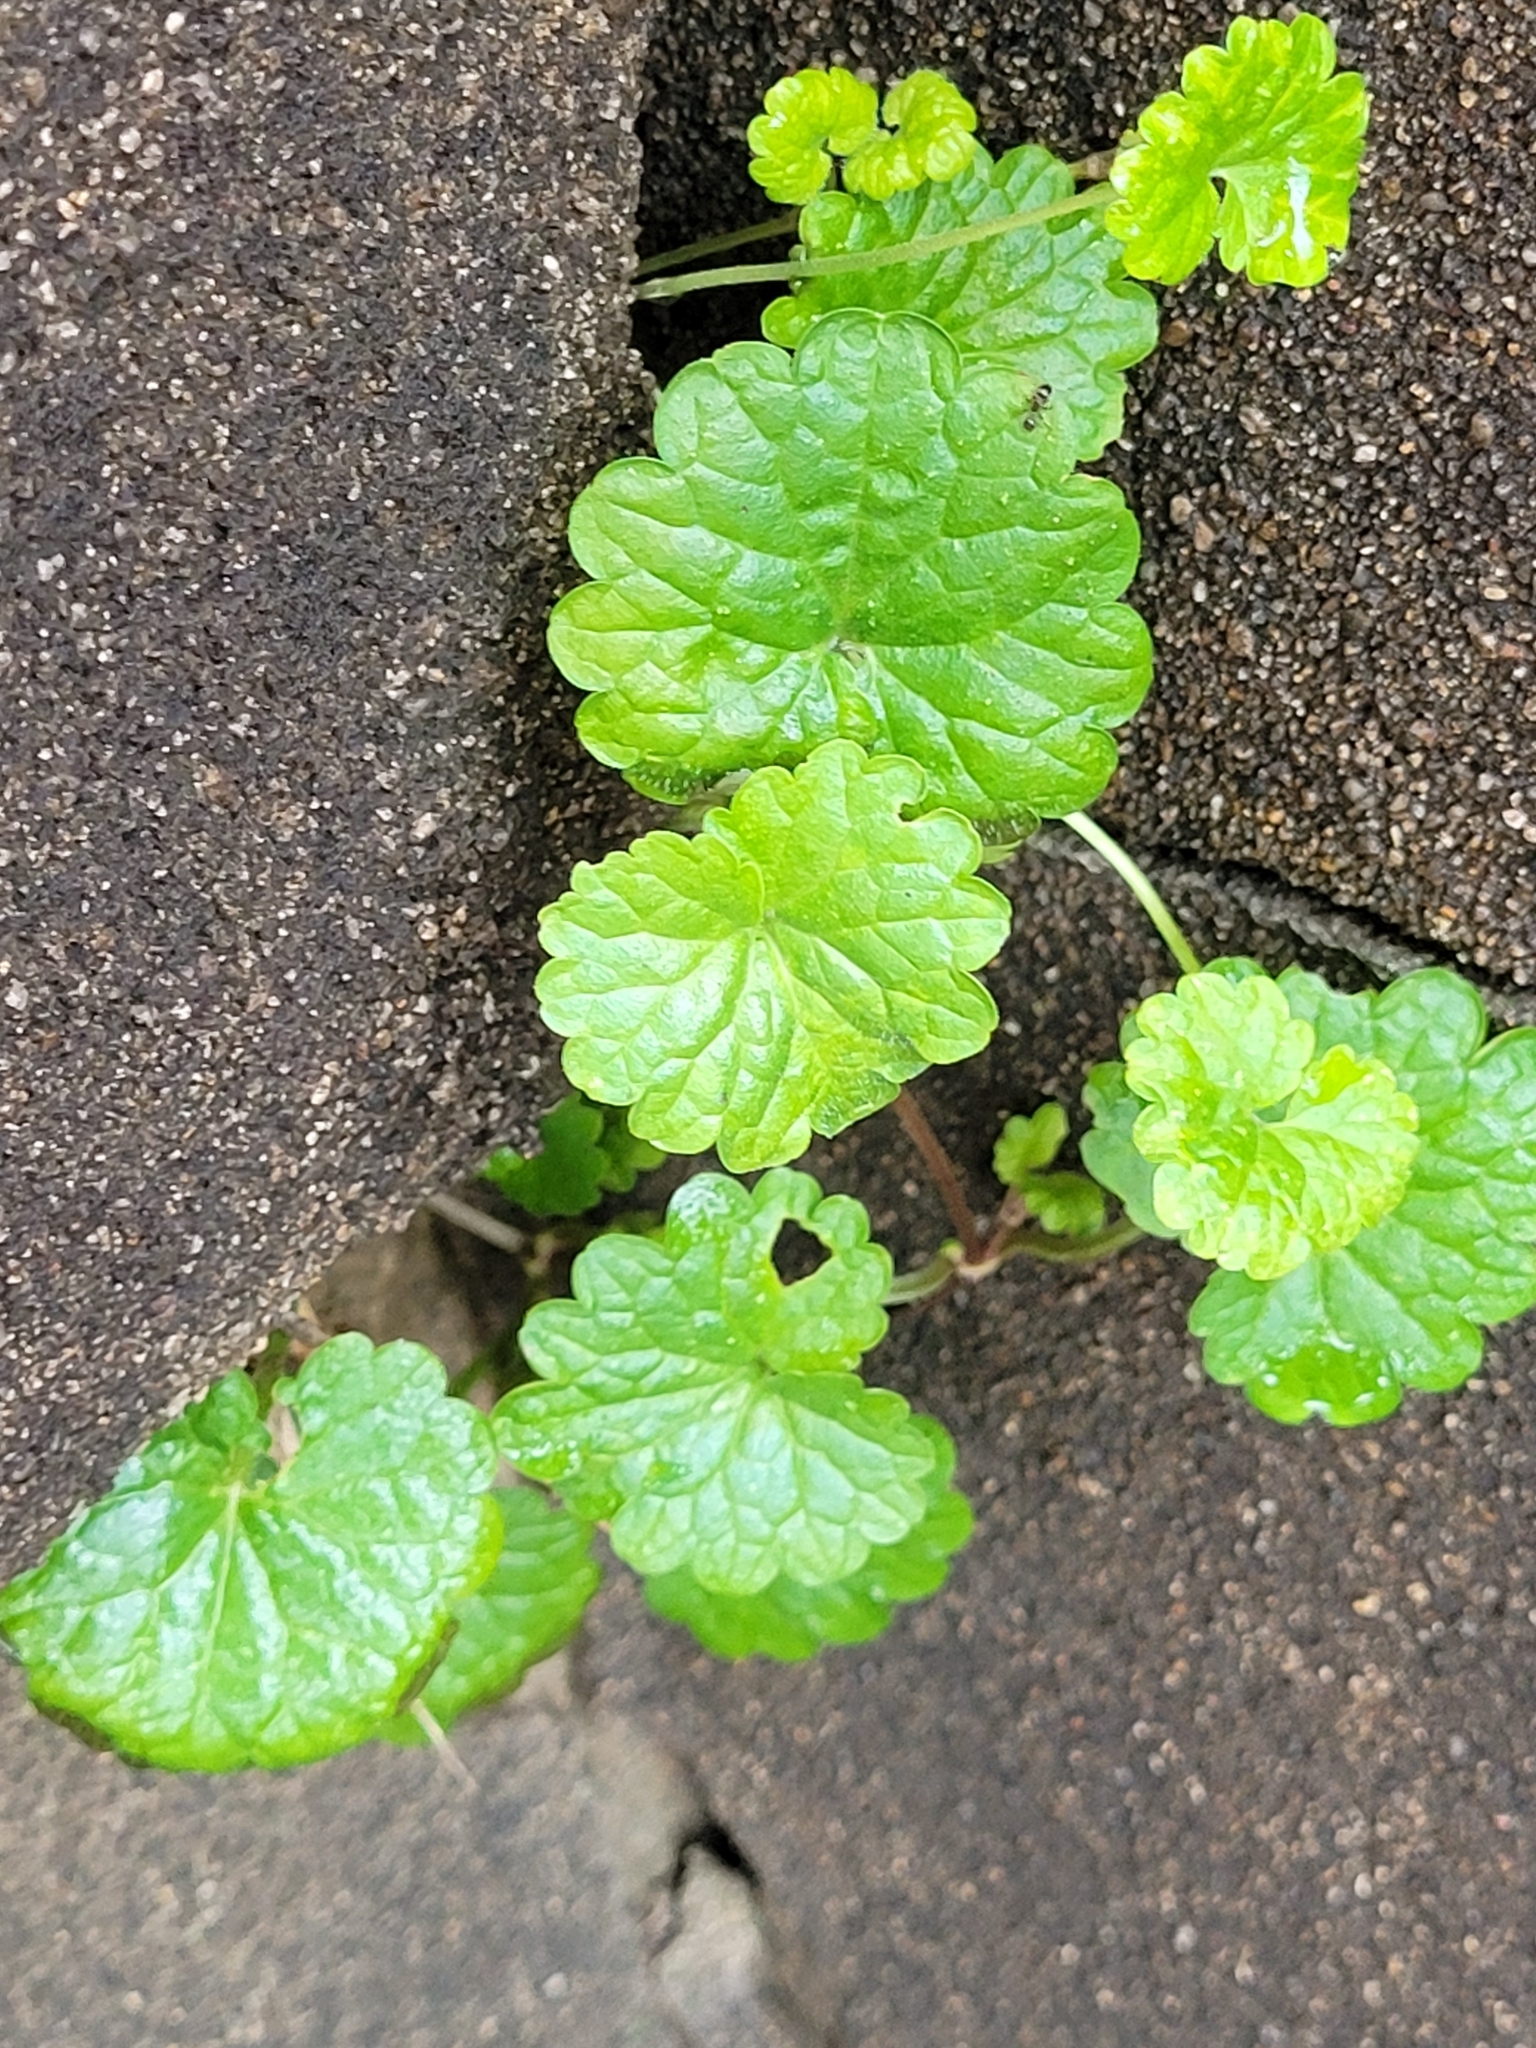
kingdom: Plantae
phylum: Tracheophyta
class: Magnoliopsida
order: Lamiales
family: Lamiaceae
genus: Glechoma
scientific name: Glechoma hederacea
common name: Ground ivy
